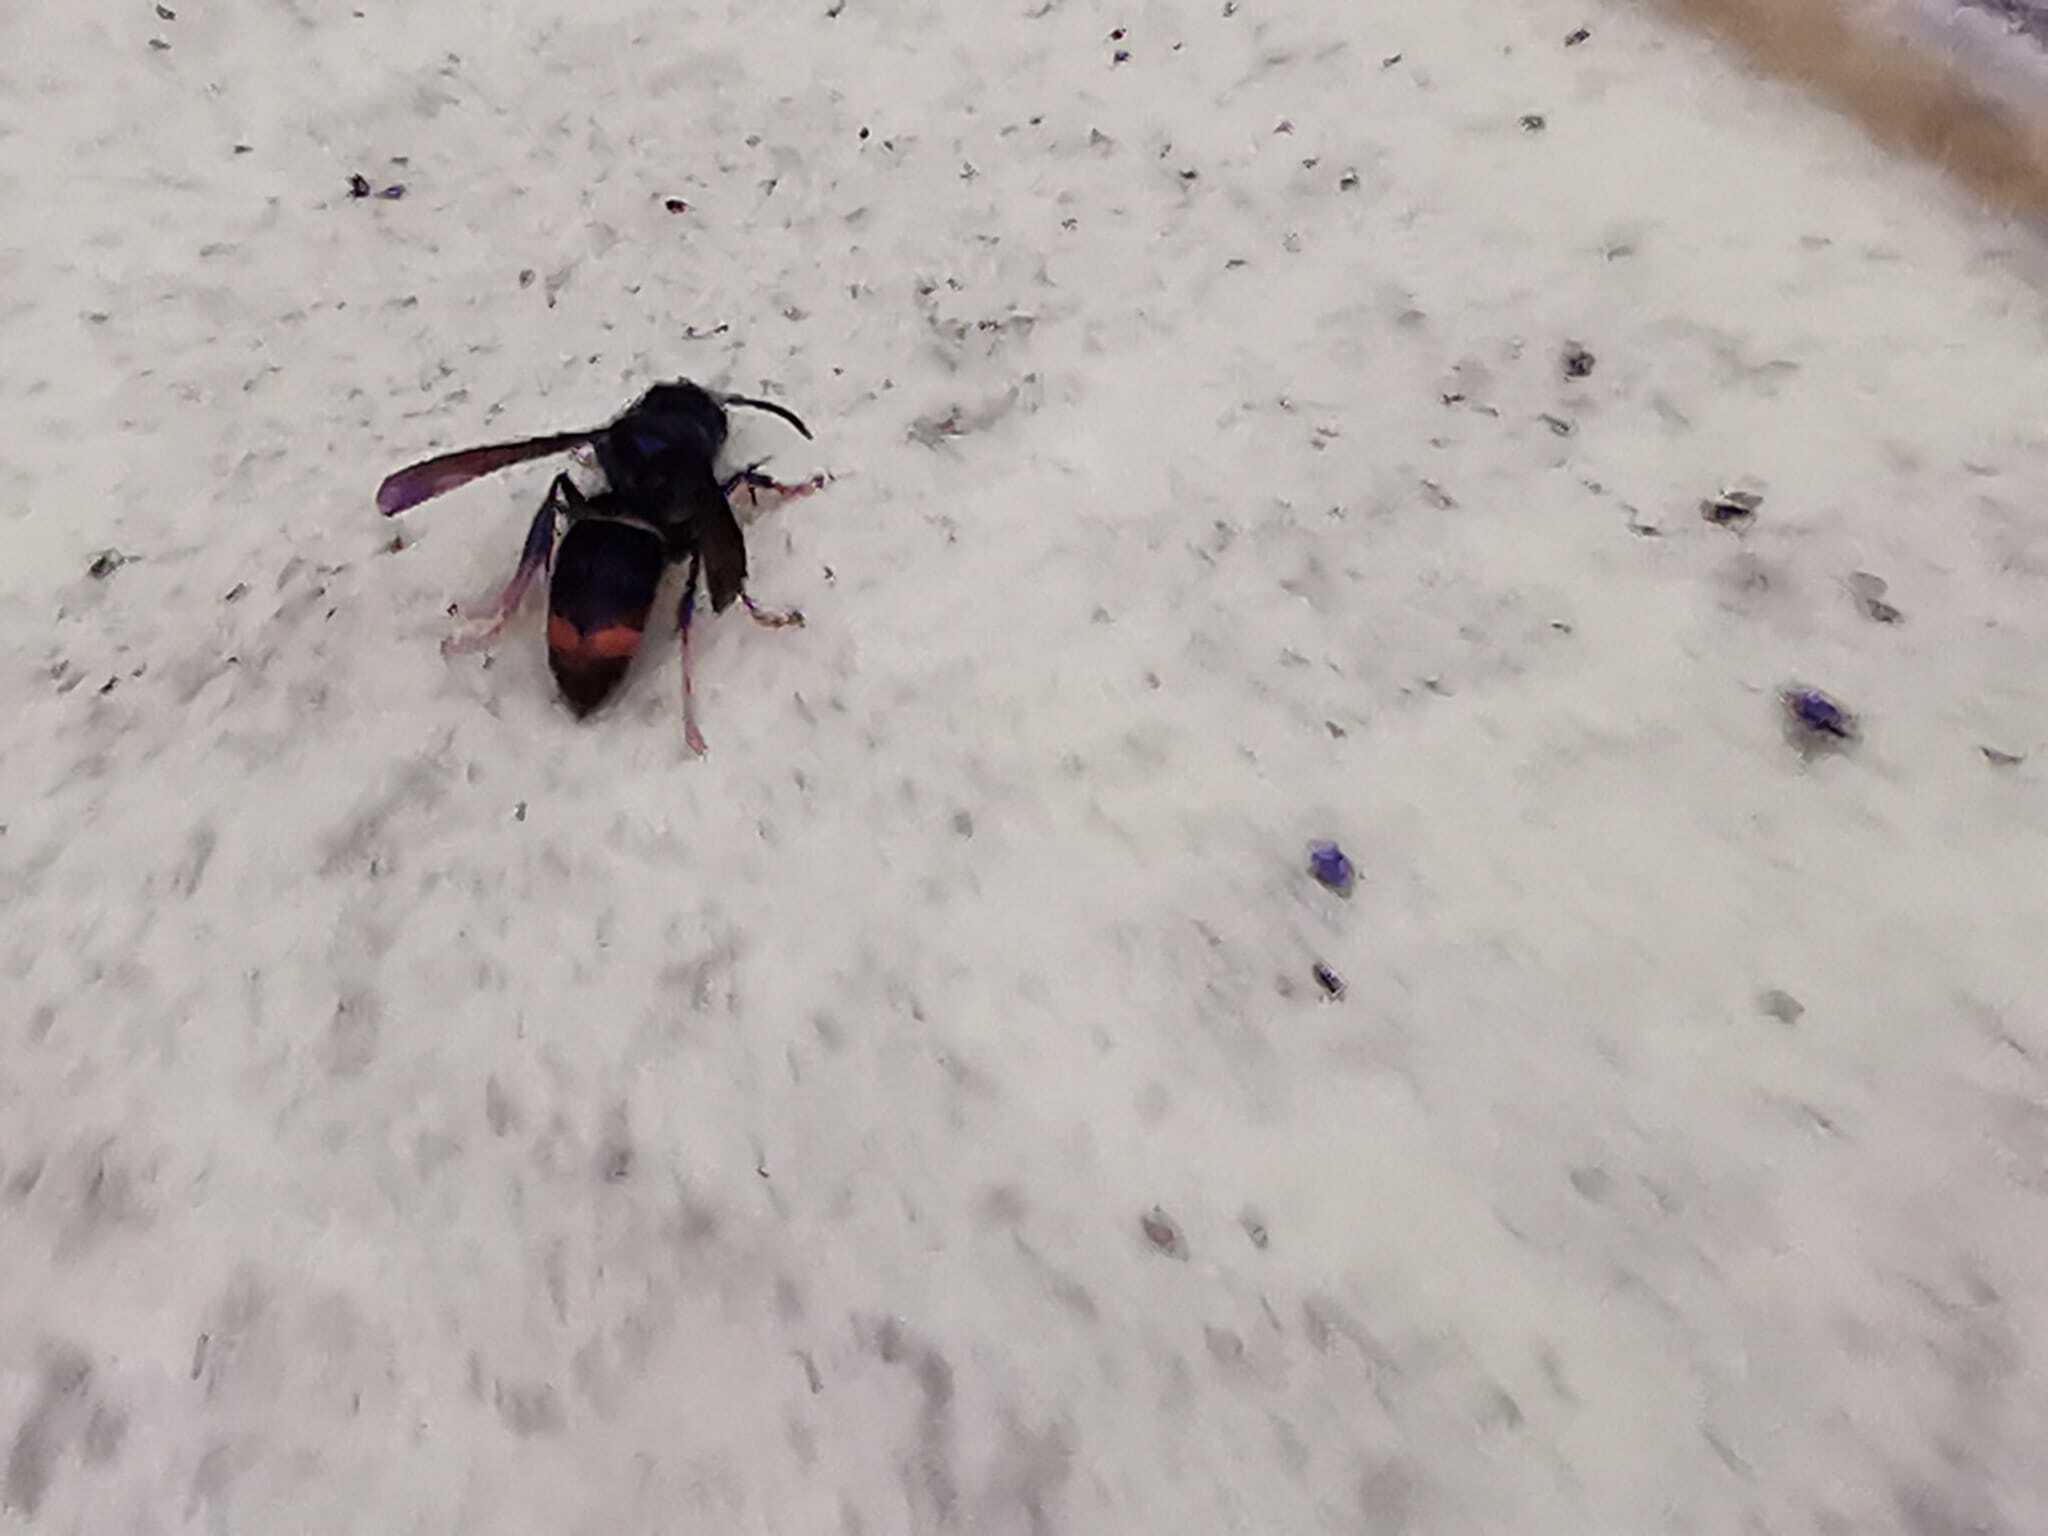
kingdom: Animalia
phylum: Arthropoda
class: Insecta
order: Hymenoptera
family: Vespidae
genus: Vespa
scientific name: Vespa velutina
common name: Asian hornet
